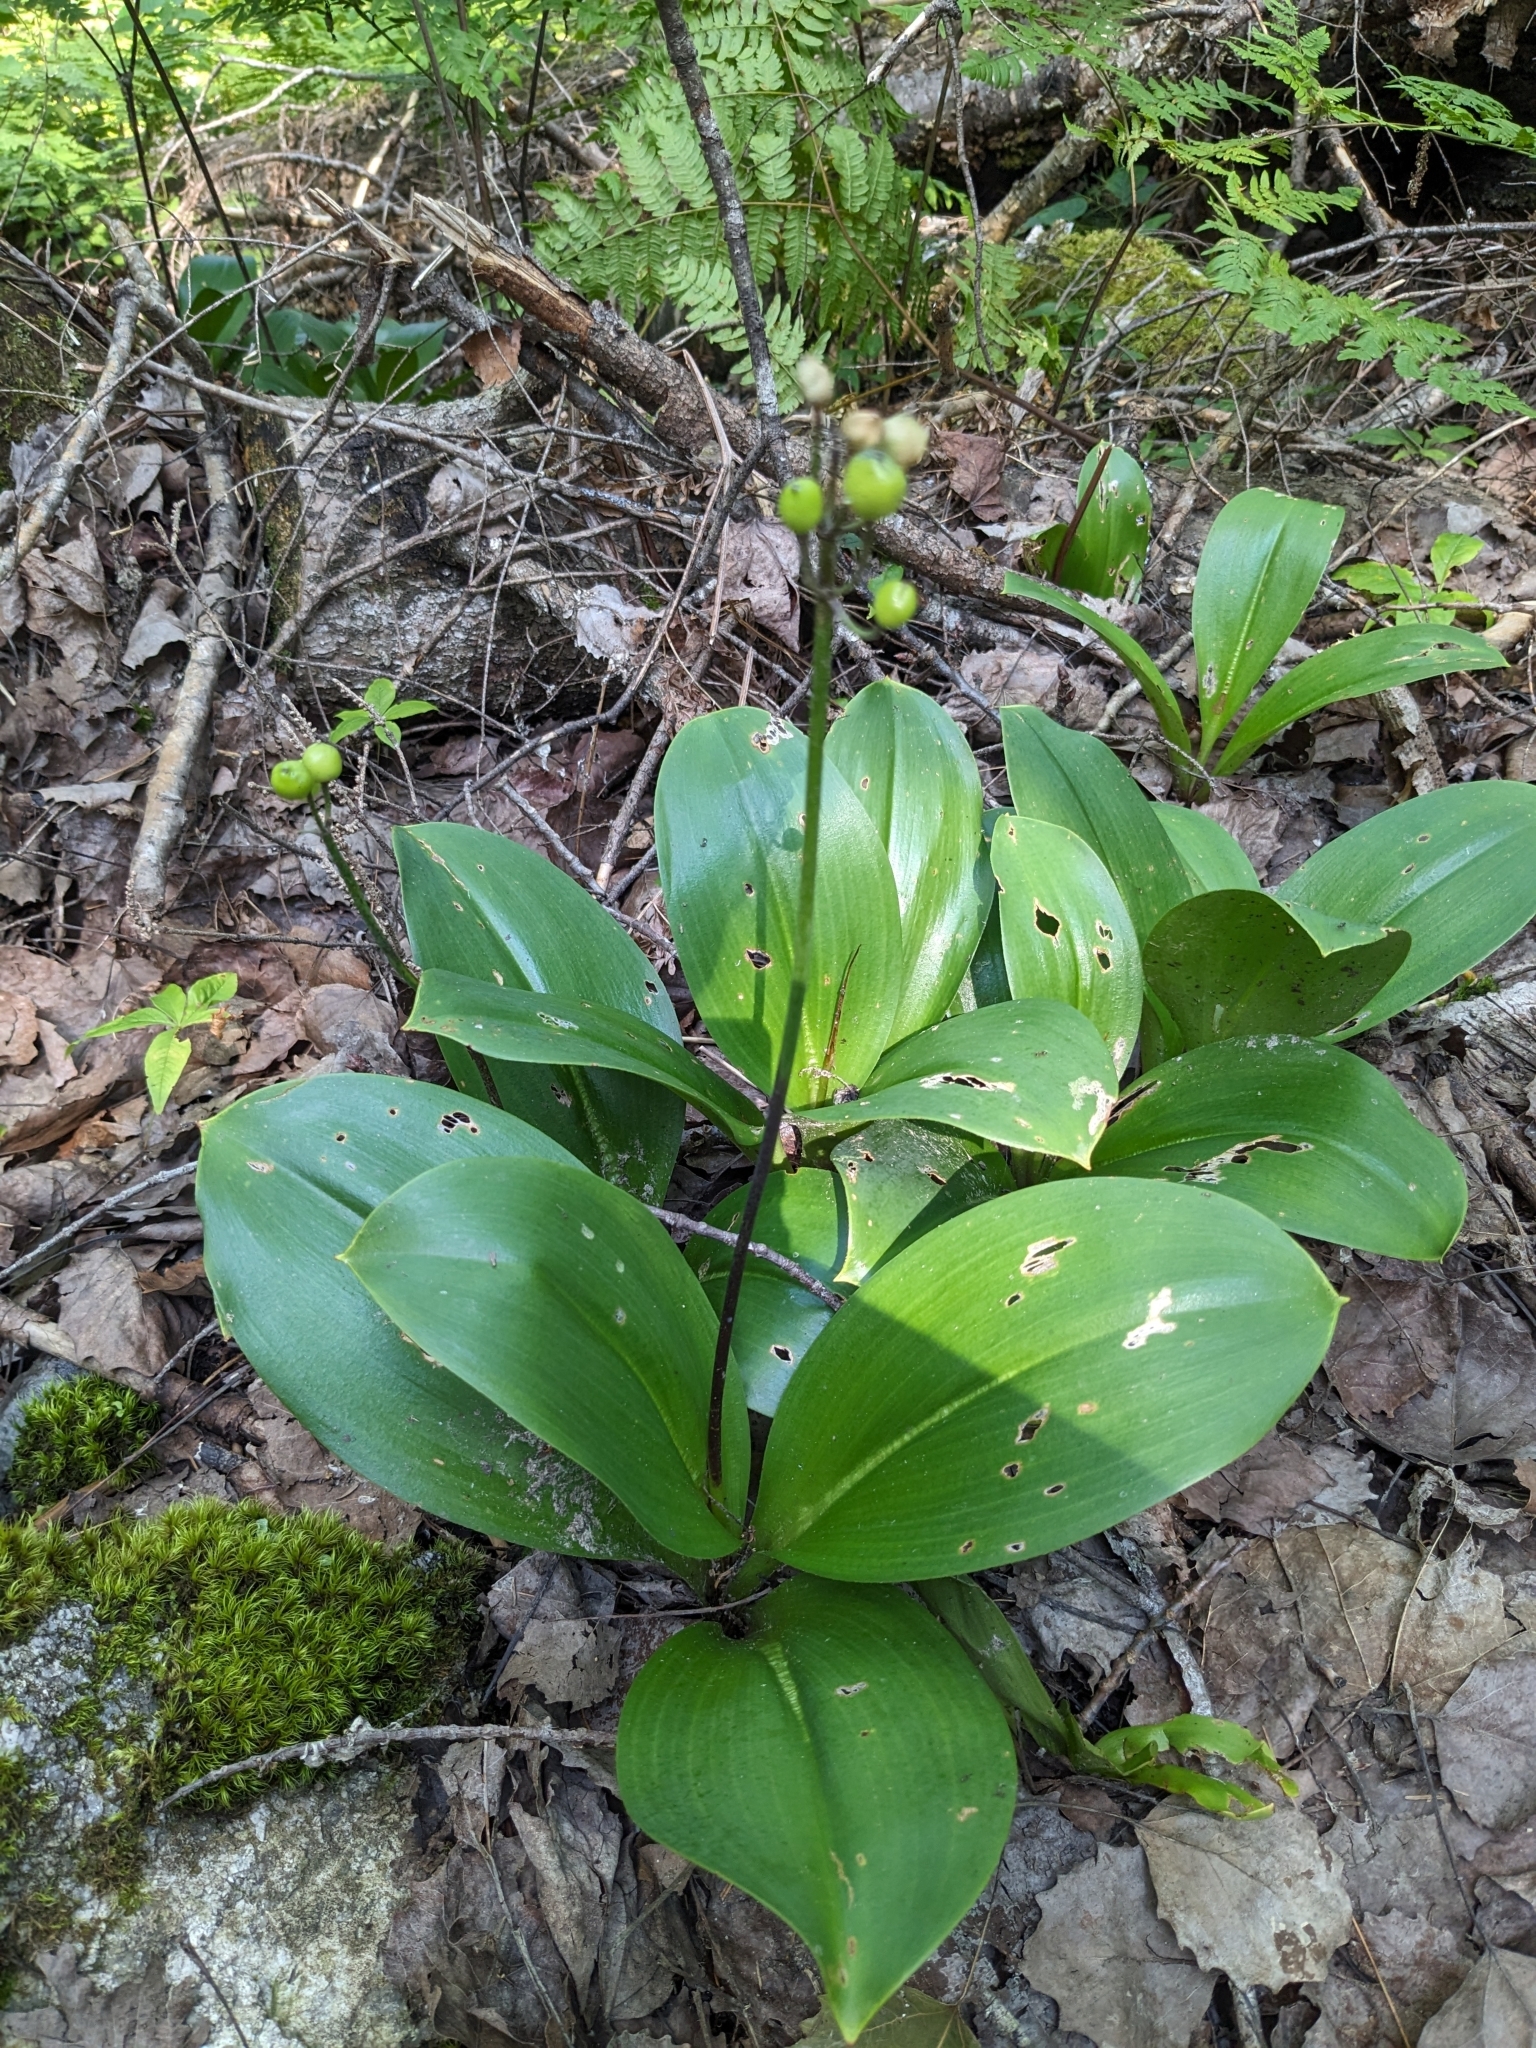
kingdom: Plantae
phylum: Tracheophyta
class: Liliopsida
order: Liliales
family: Liliaceae
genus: Clintonia
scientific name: Clintonia borealis
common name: Yellow clintonia
